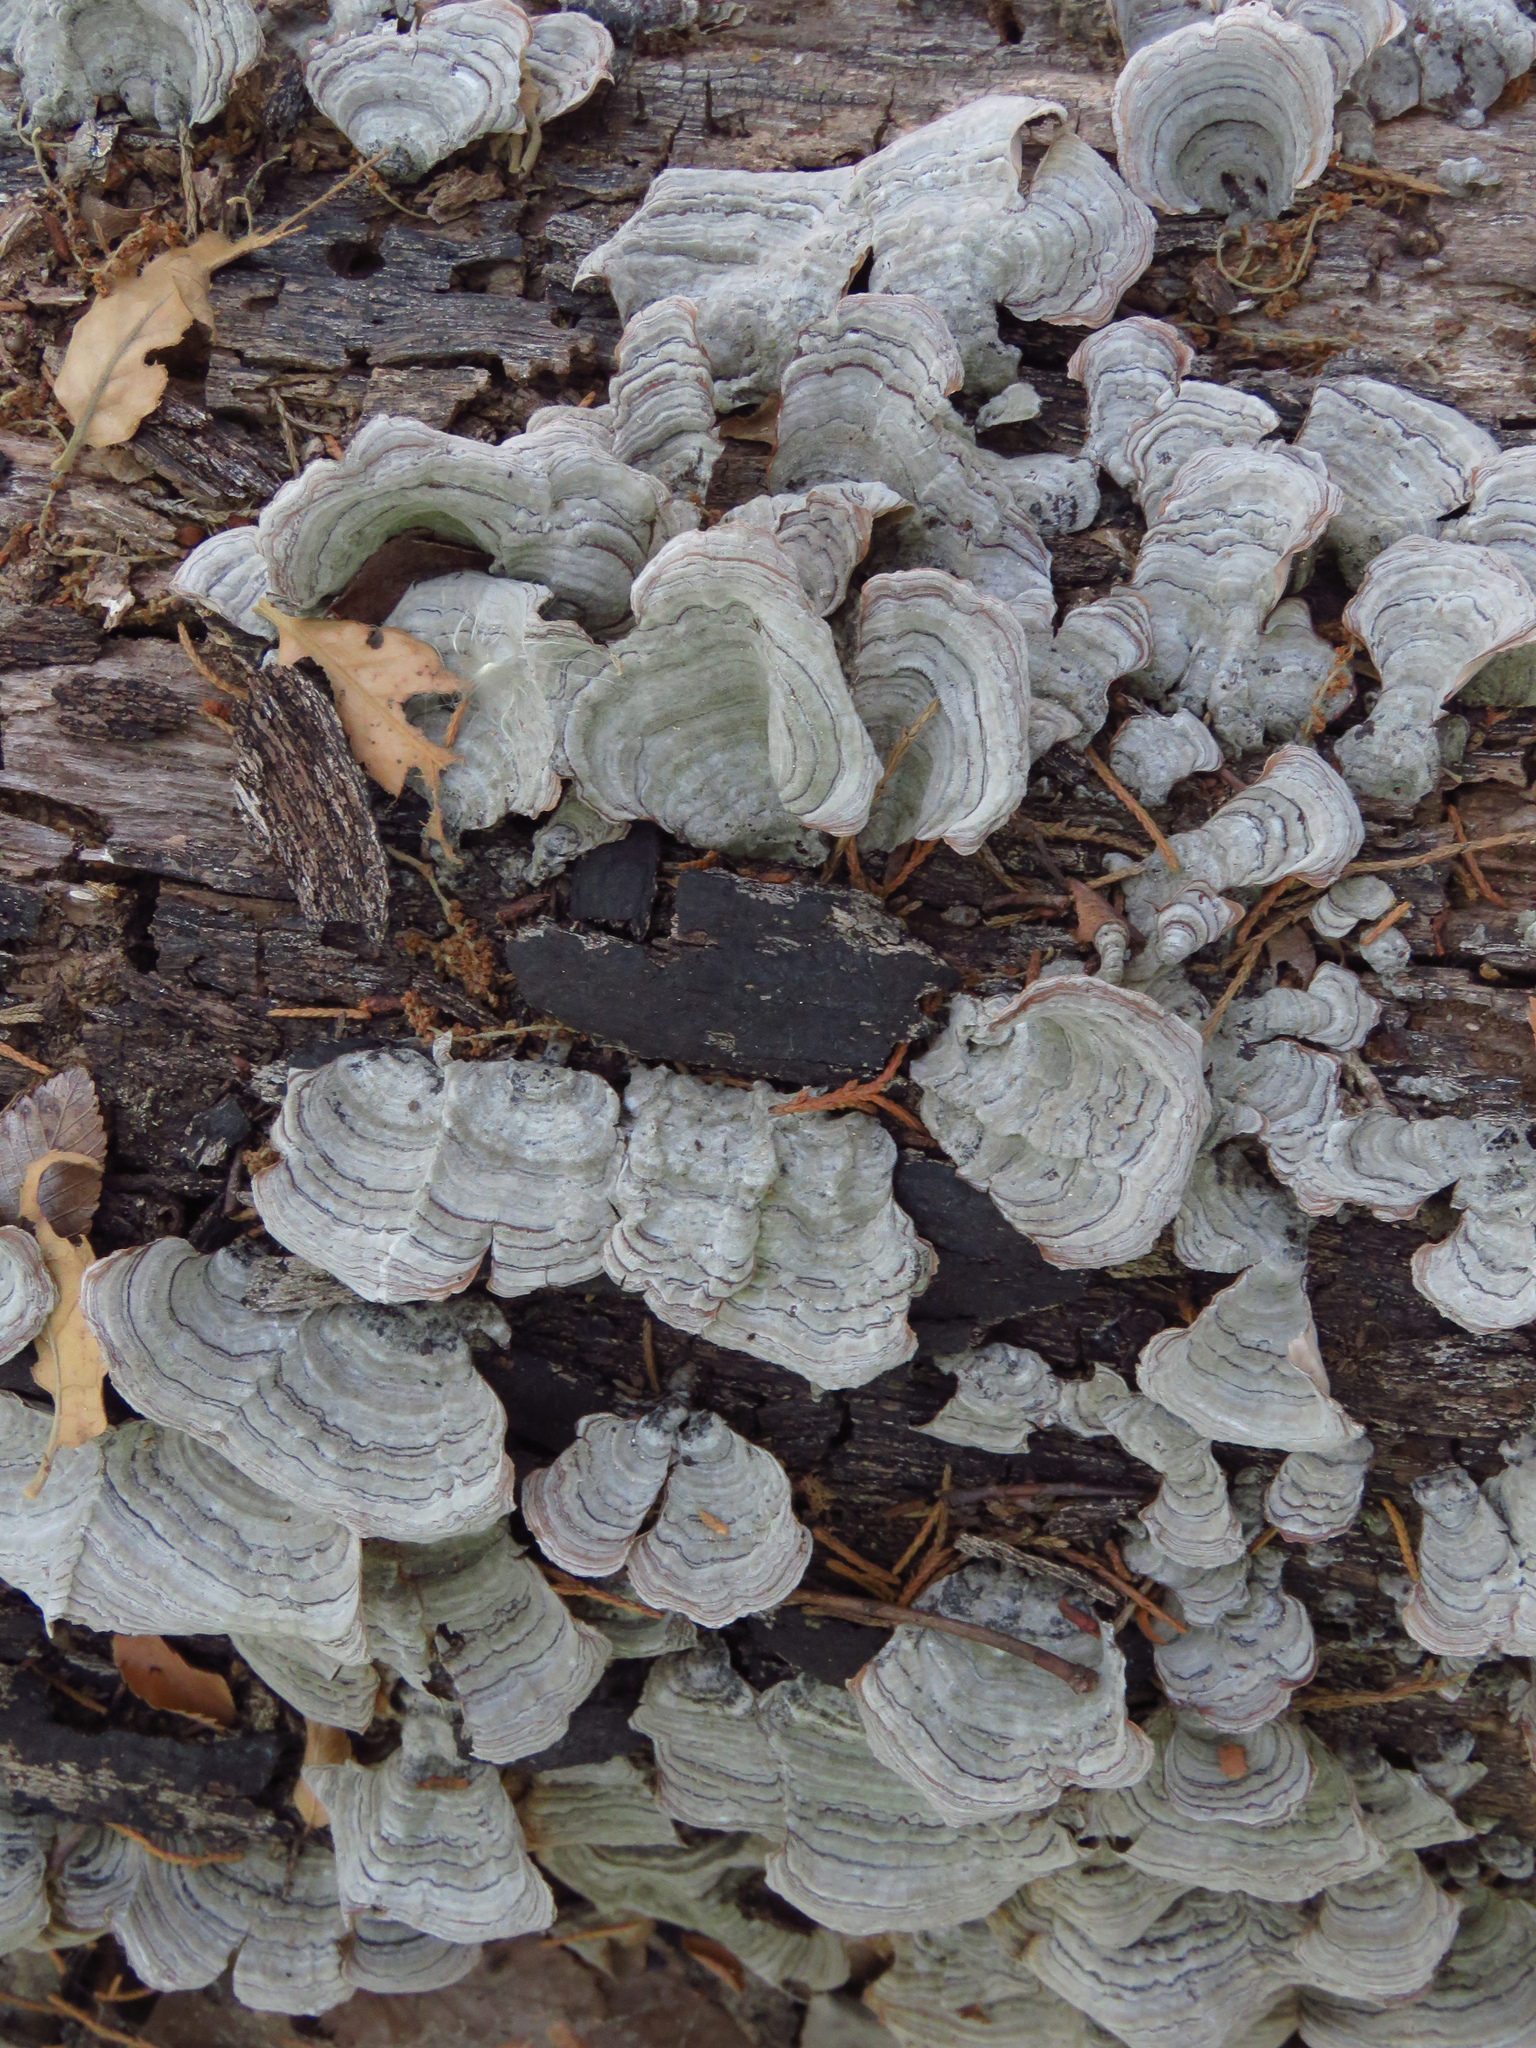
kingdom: Fungi
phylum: Basidiomycota
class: Agaricomycetes
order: Russulales
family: Stereaceae
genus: Stereum
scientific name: Stereum ostrea
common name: False turkeytail
